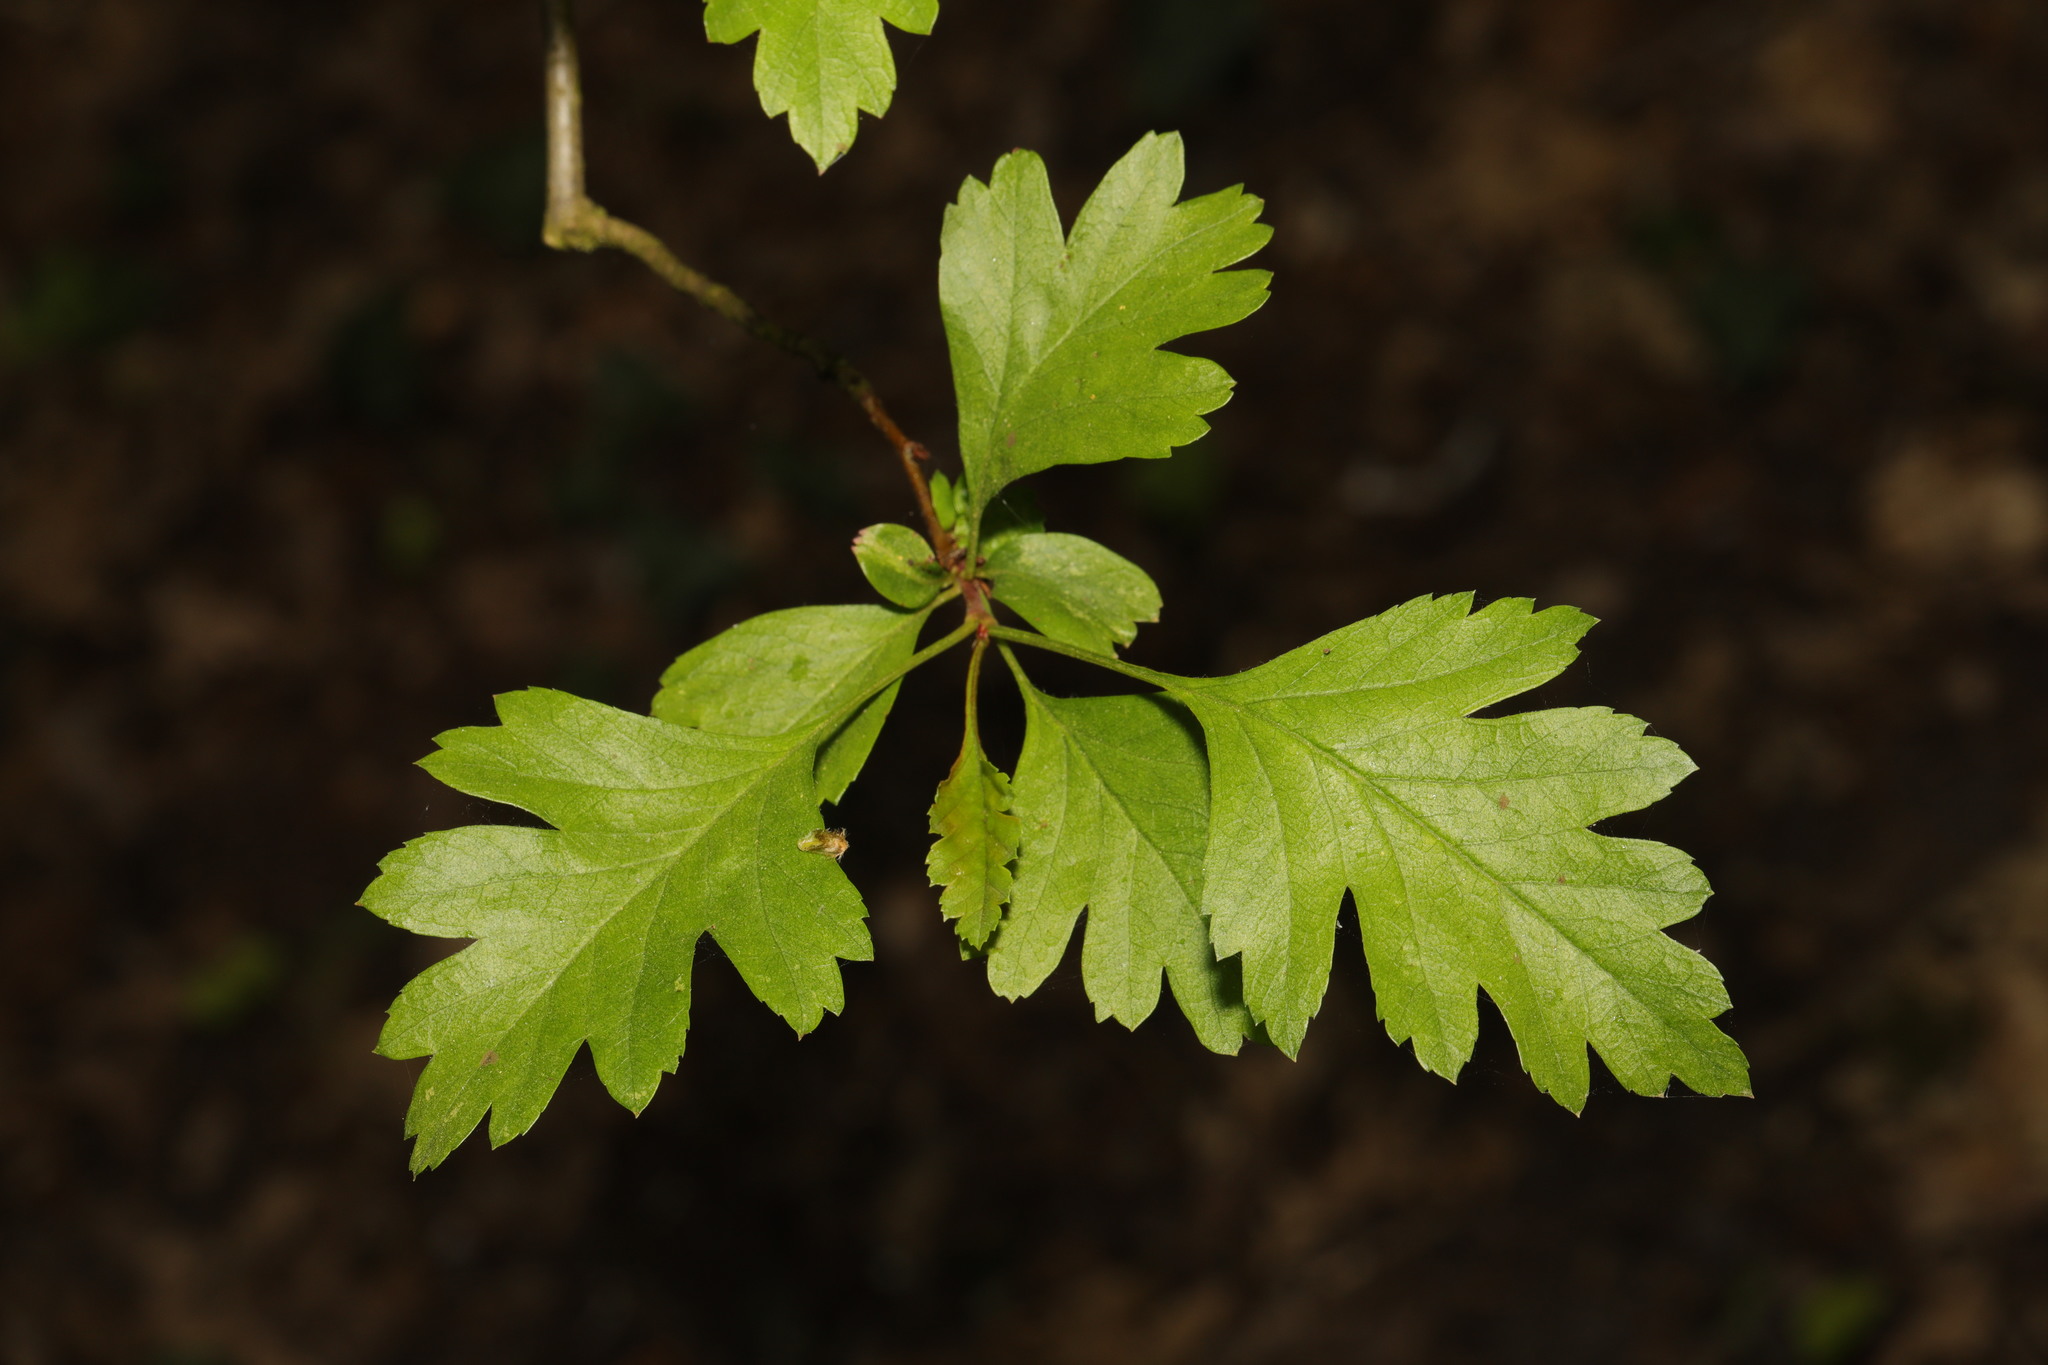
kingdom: Plantae
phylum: Tracheophyta
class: Magnoliopsida
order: Rosales
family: Rosaceae
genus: Crataegus
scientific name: Crataegus monogyna
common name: Hawthorn
